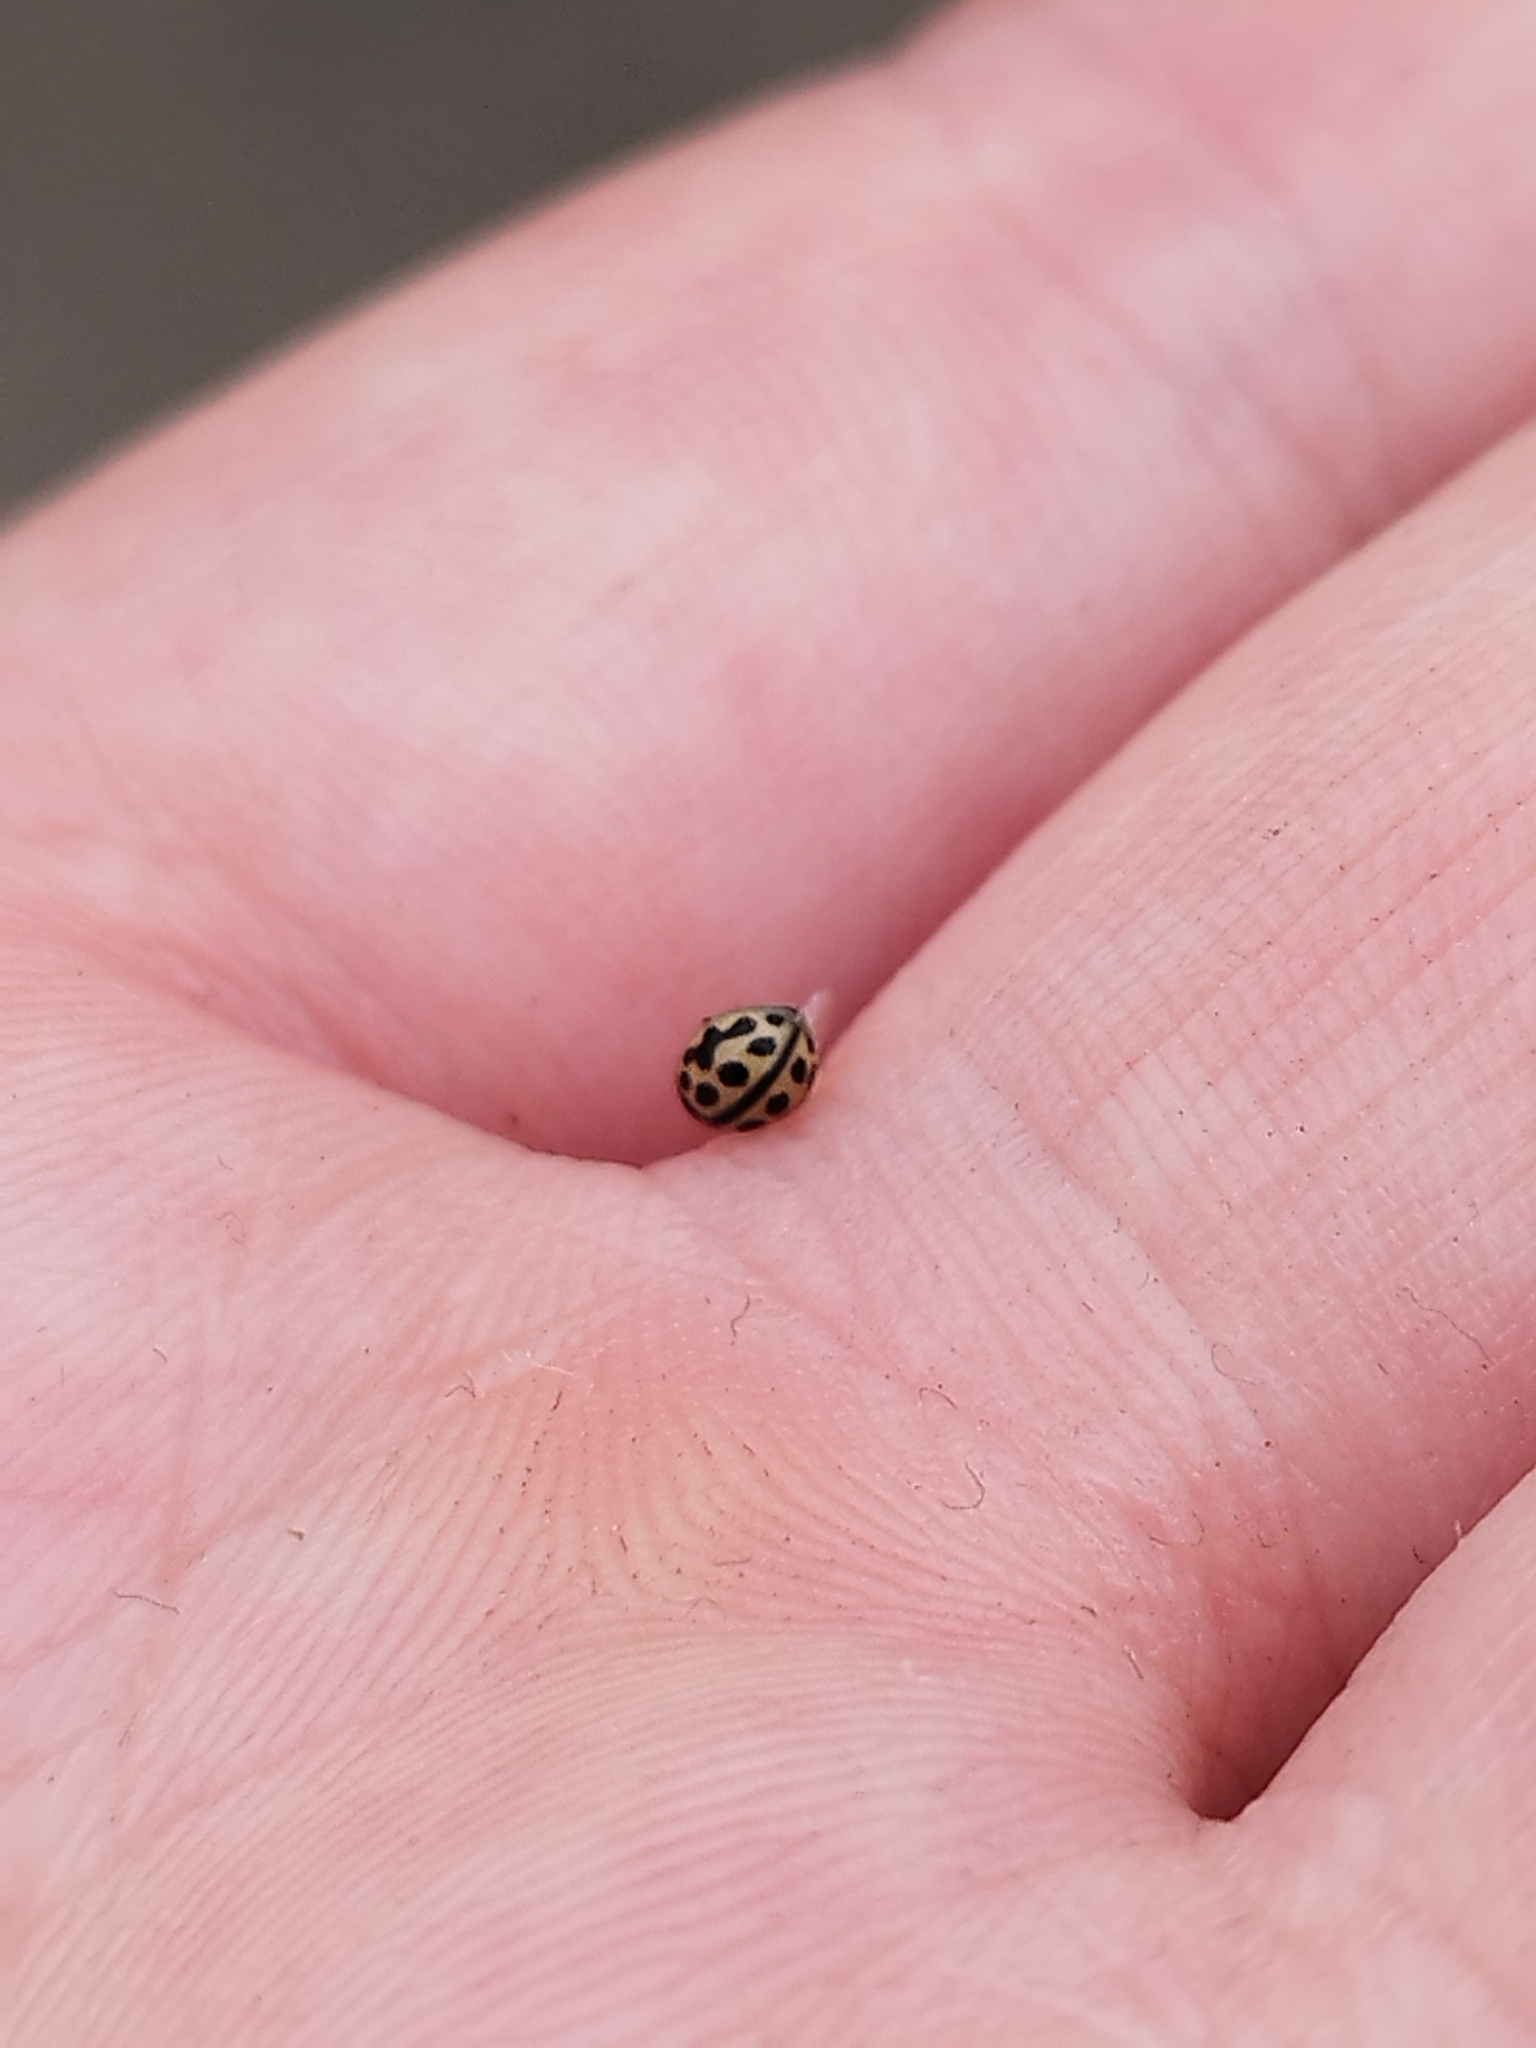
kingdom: Animalia
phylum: Arthropoda
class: Insecta
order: Coleoptera
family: Coccinellidae
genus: Tytthaspis
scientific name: Tytthaspis sedecimpunctata
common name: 16-spot ladybird
